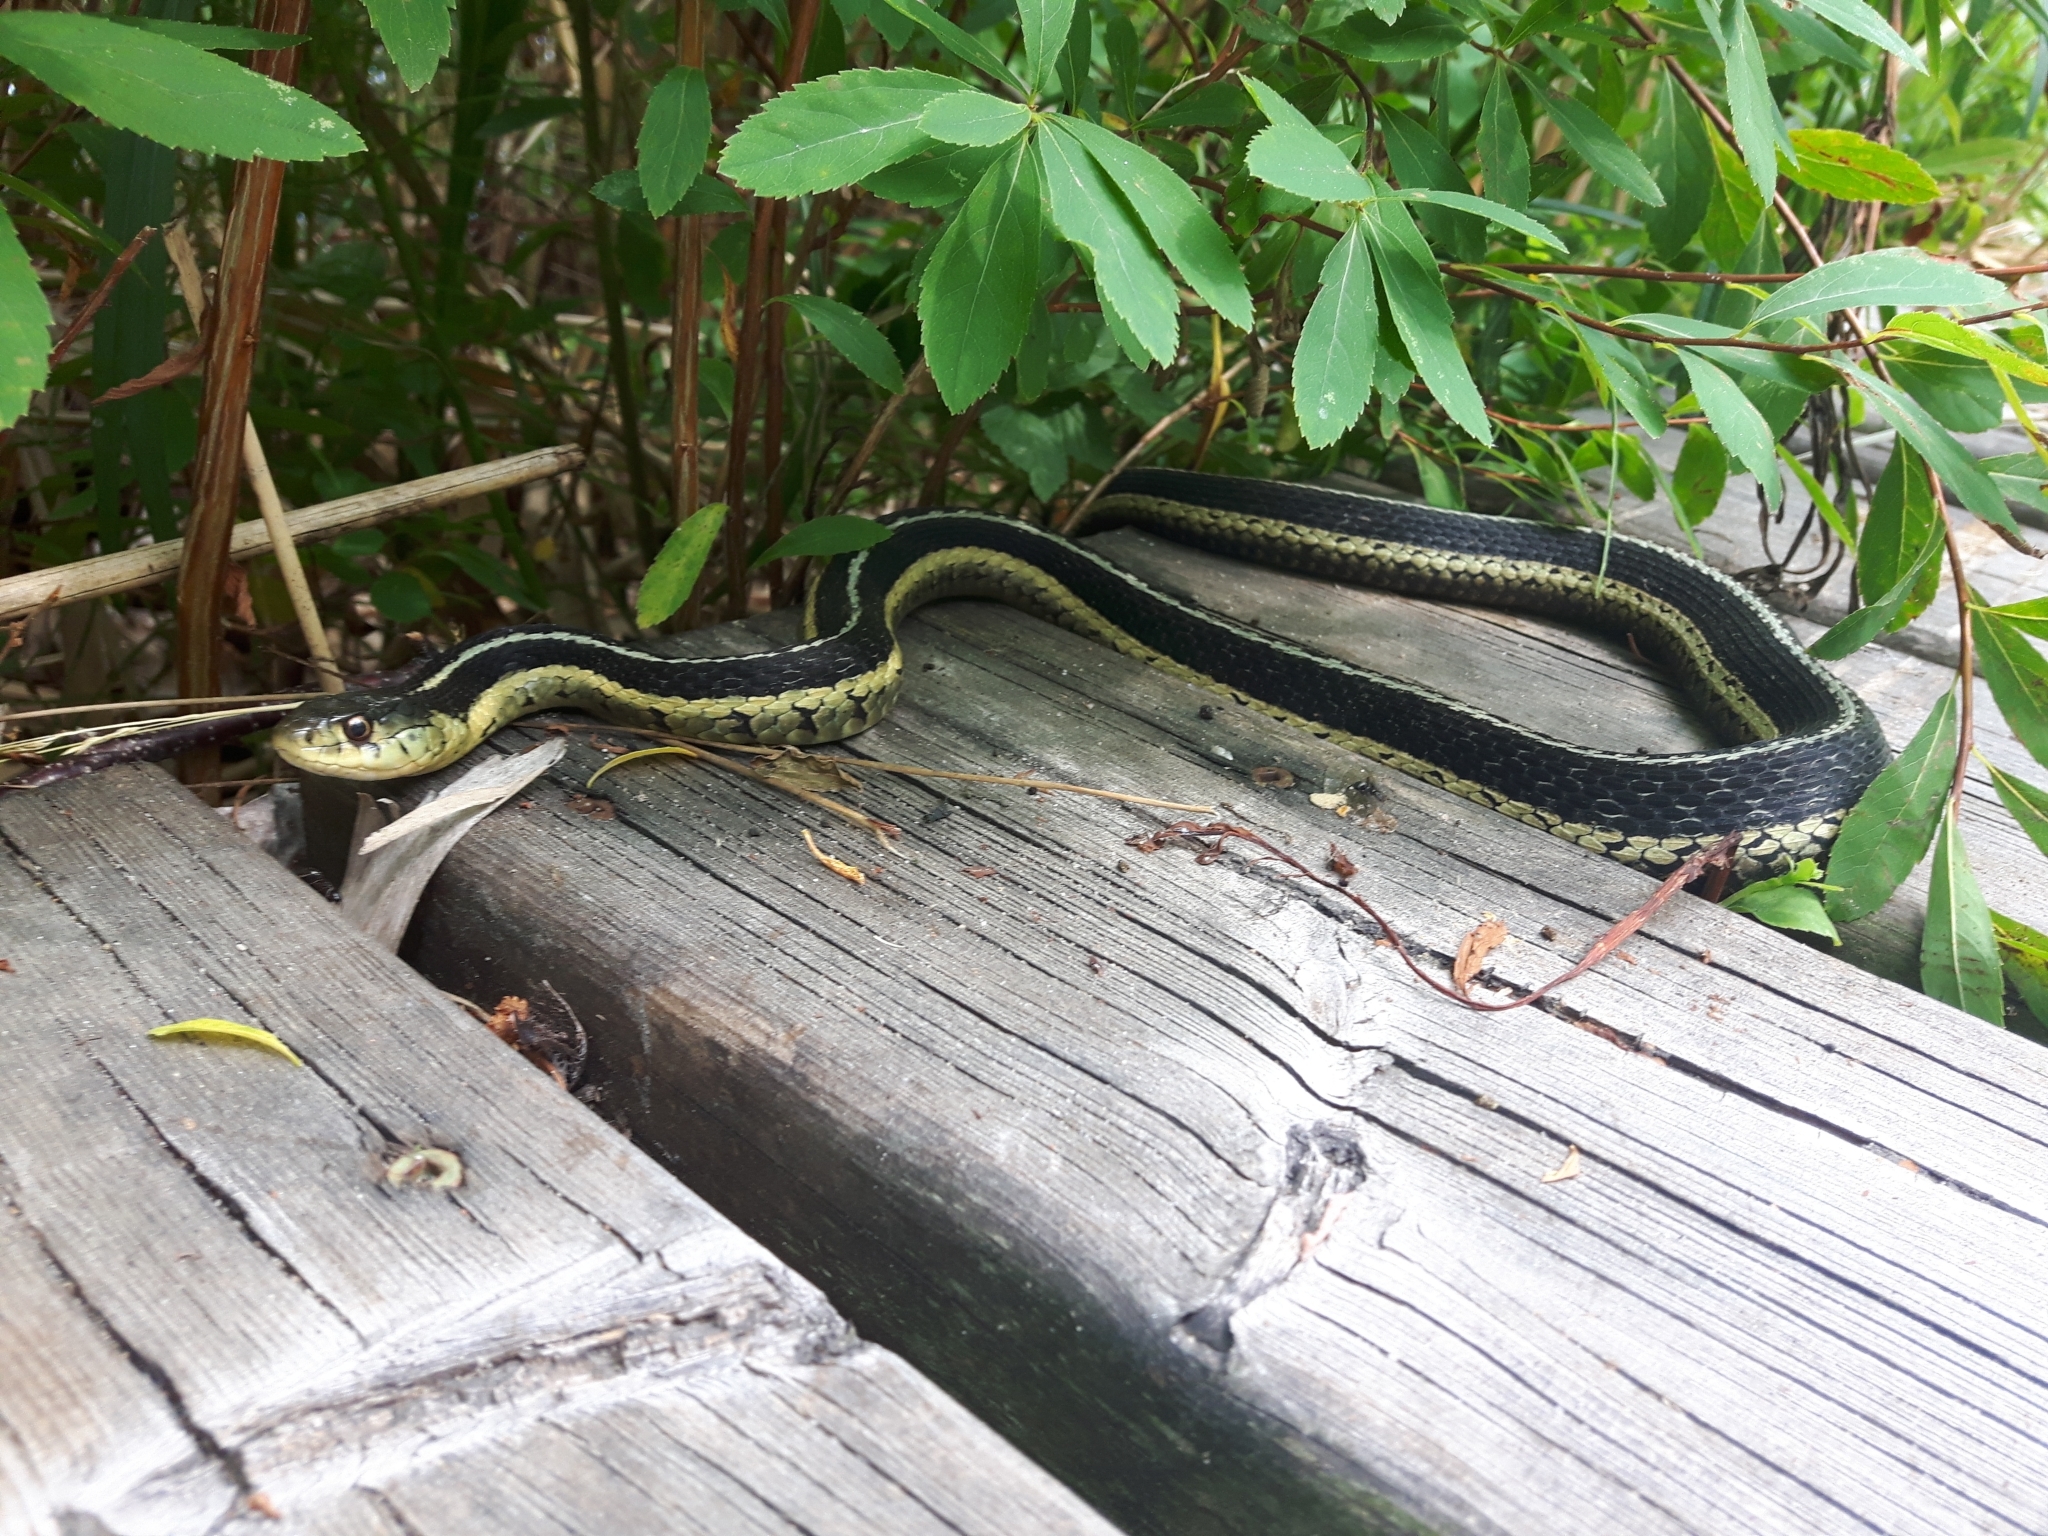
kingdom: Animalia
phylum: Chordata
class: Squamata
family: Colubridae
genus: Thamnophis
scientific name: Thamnophis sirtalis
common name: Common garter snake
